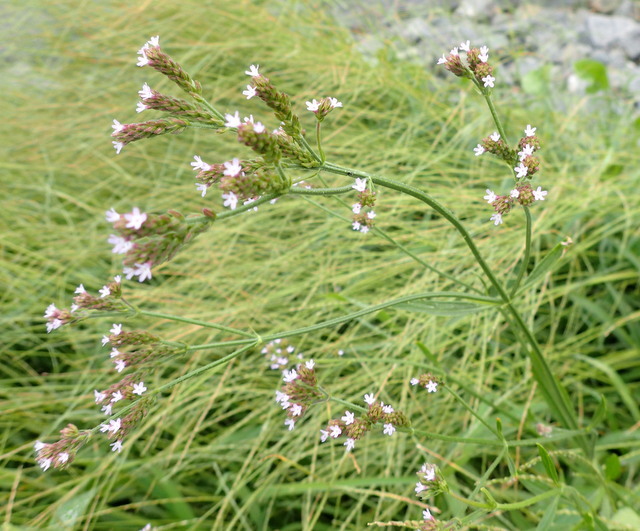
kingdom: Plantae
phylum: Tracheophyta
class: Magnoliopsida
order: Lamiales
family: Verbenaceae
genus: Verbena
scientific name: Verbena brasiliensis
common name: Brazilian vervain
